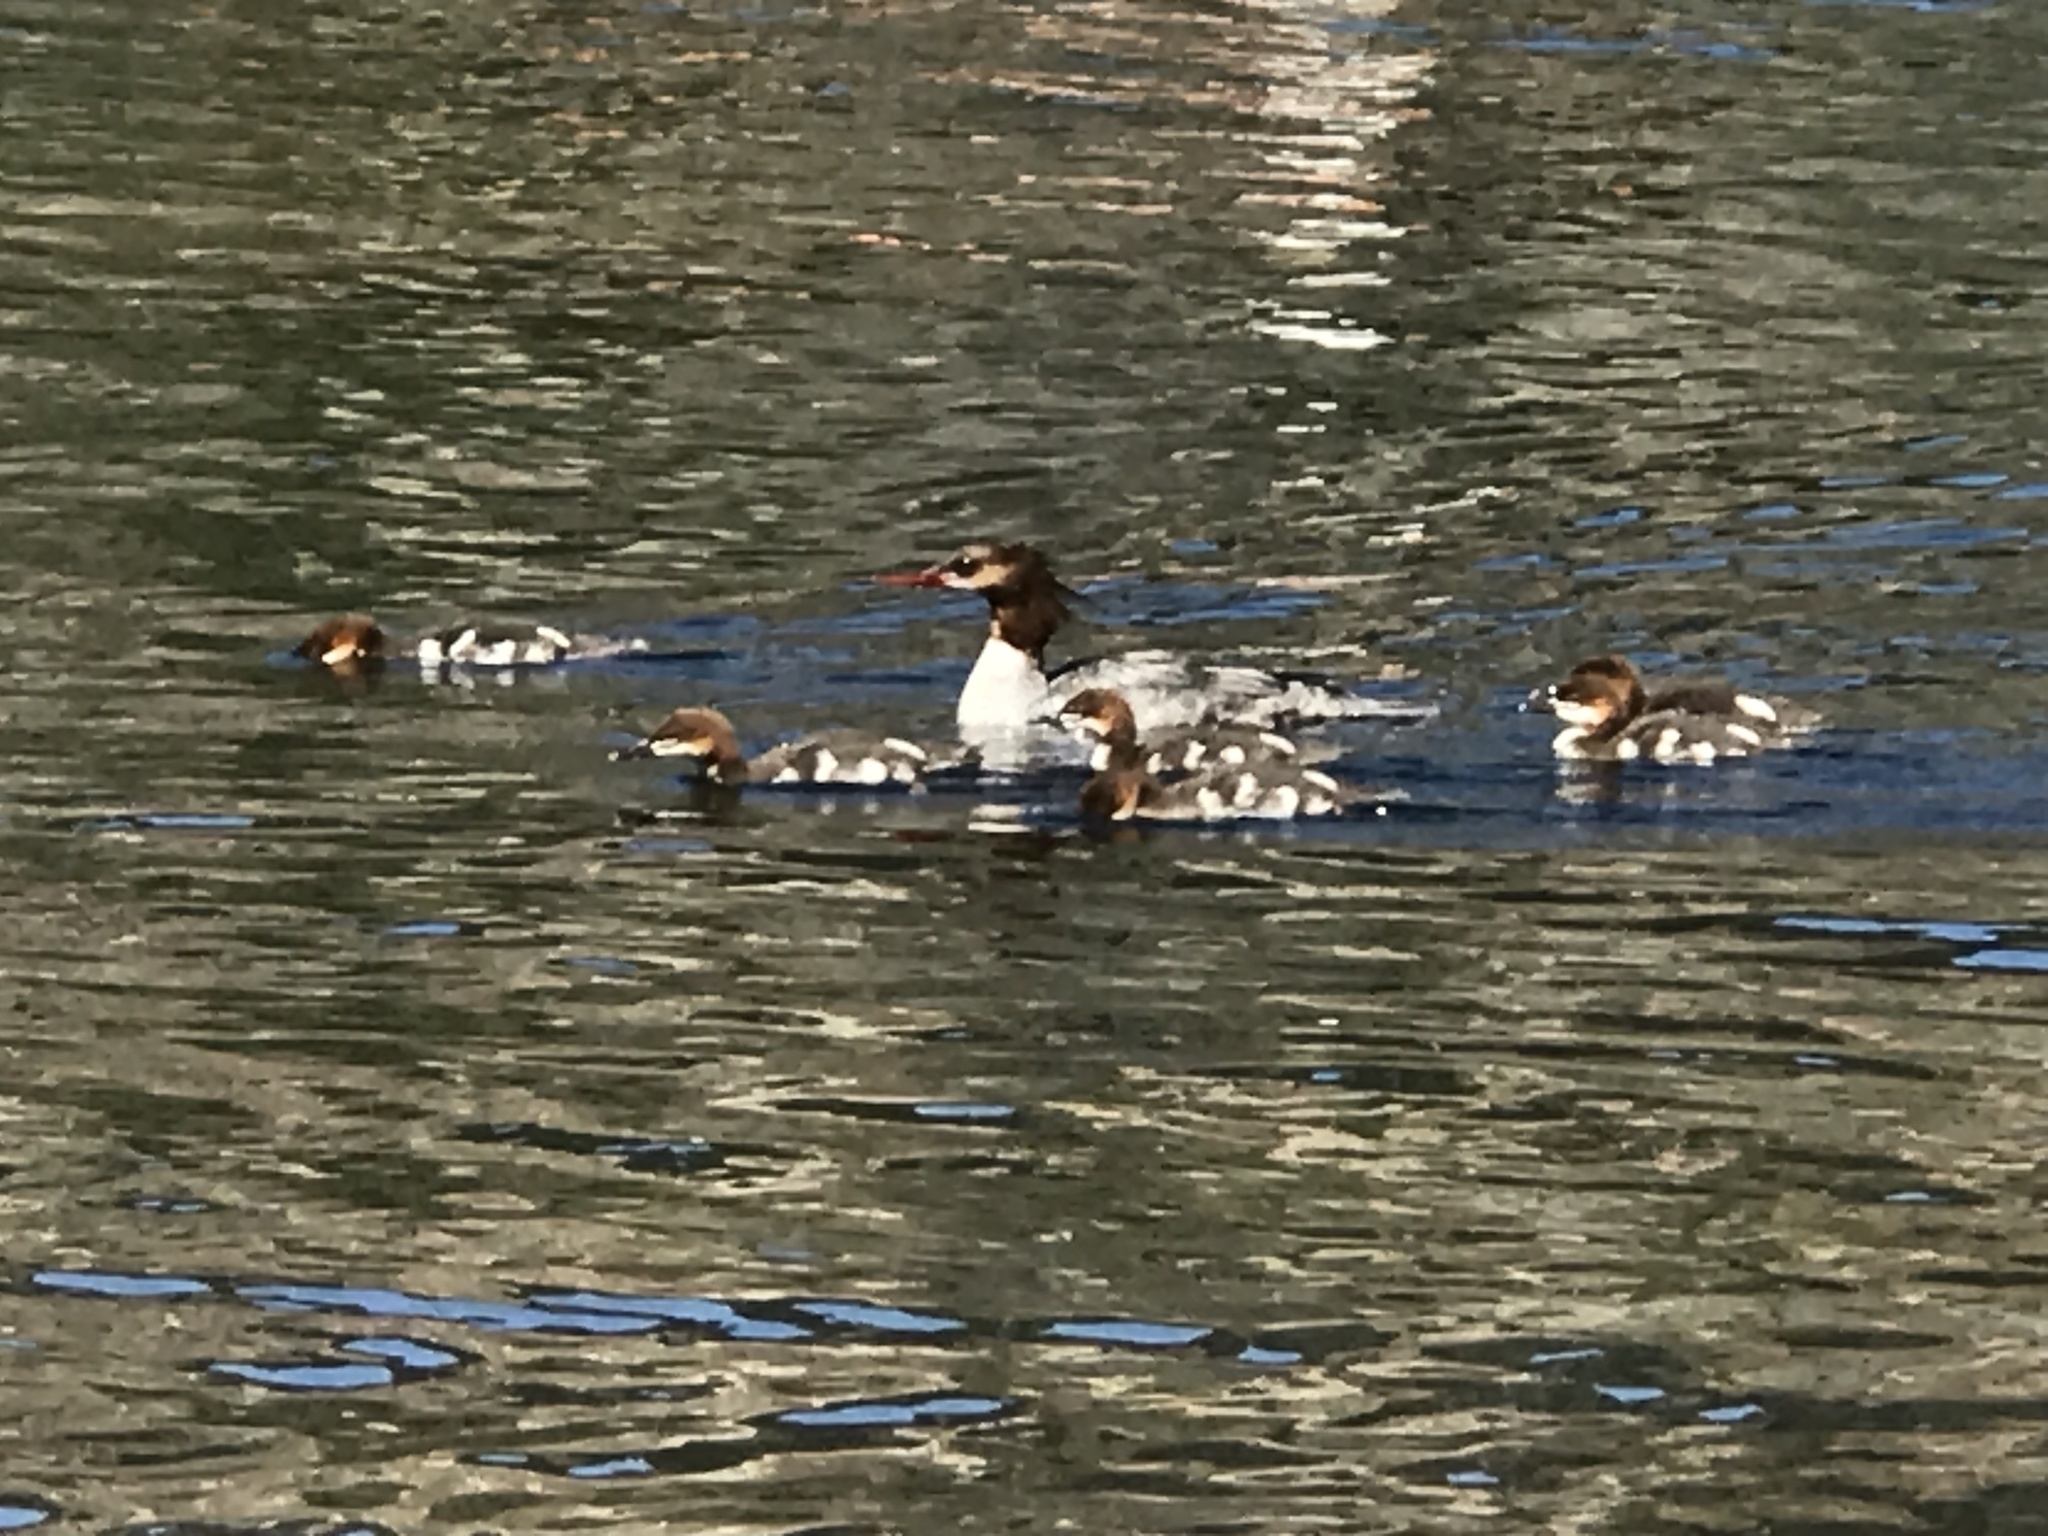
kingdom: Animalia
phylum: Chordata
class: Aves
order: Anseriformes
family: Anatidae
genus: Mergus
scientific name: Mergus merganser
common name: Common merganser
